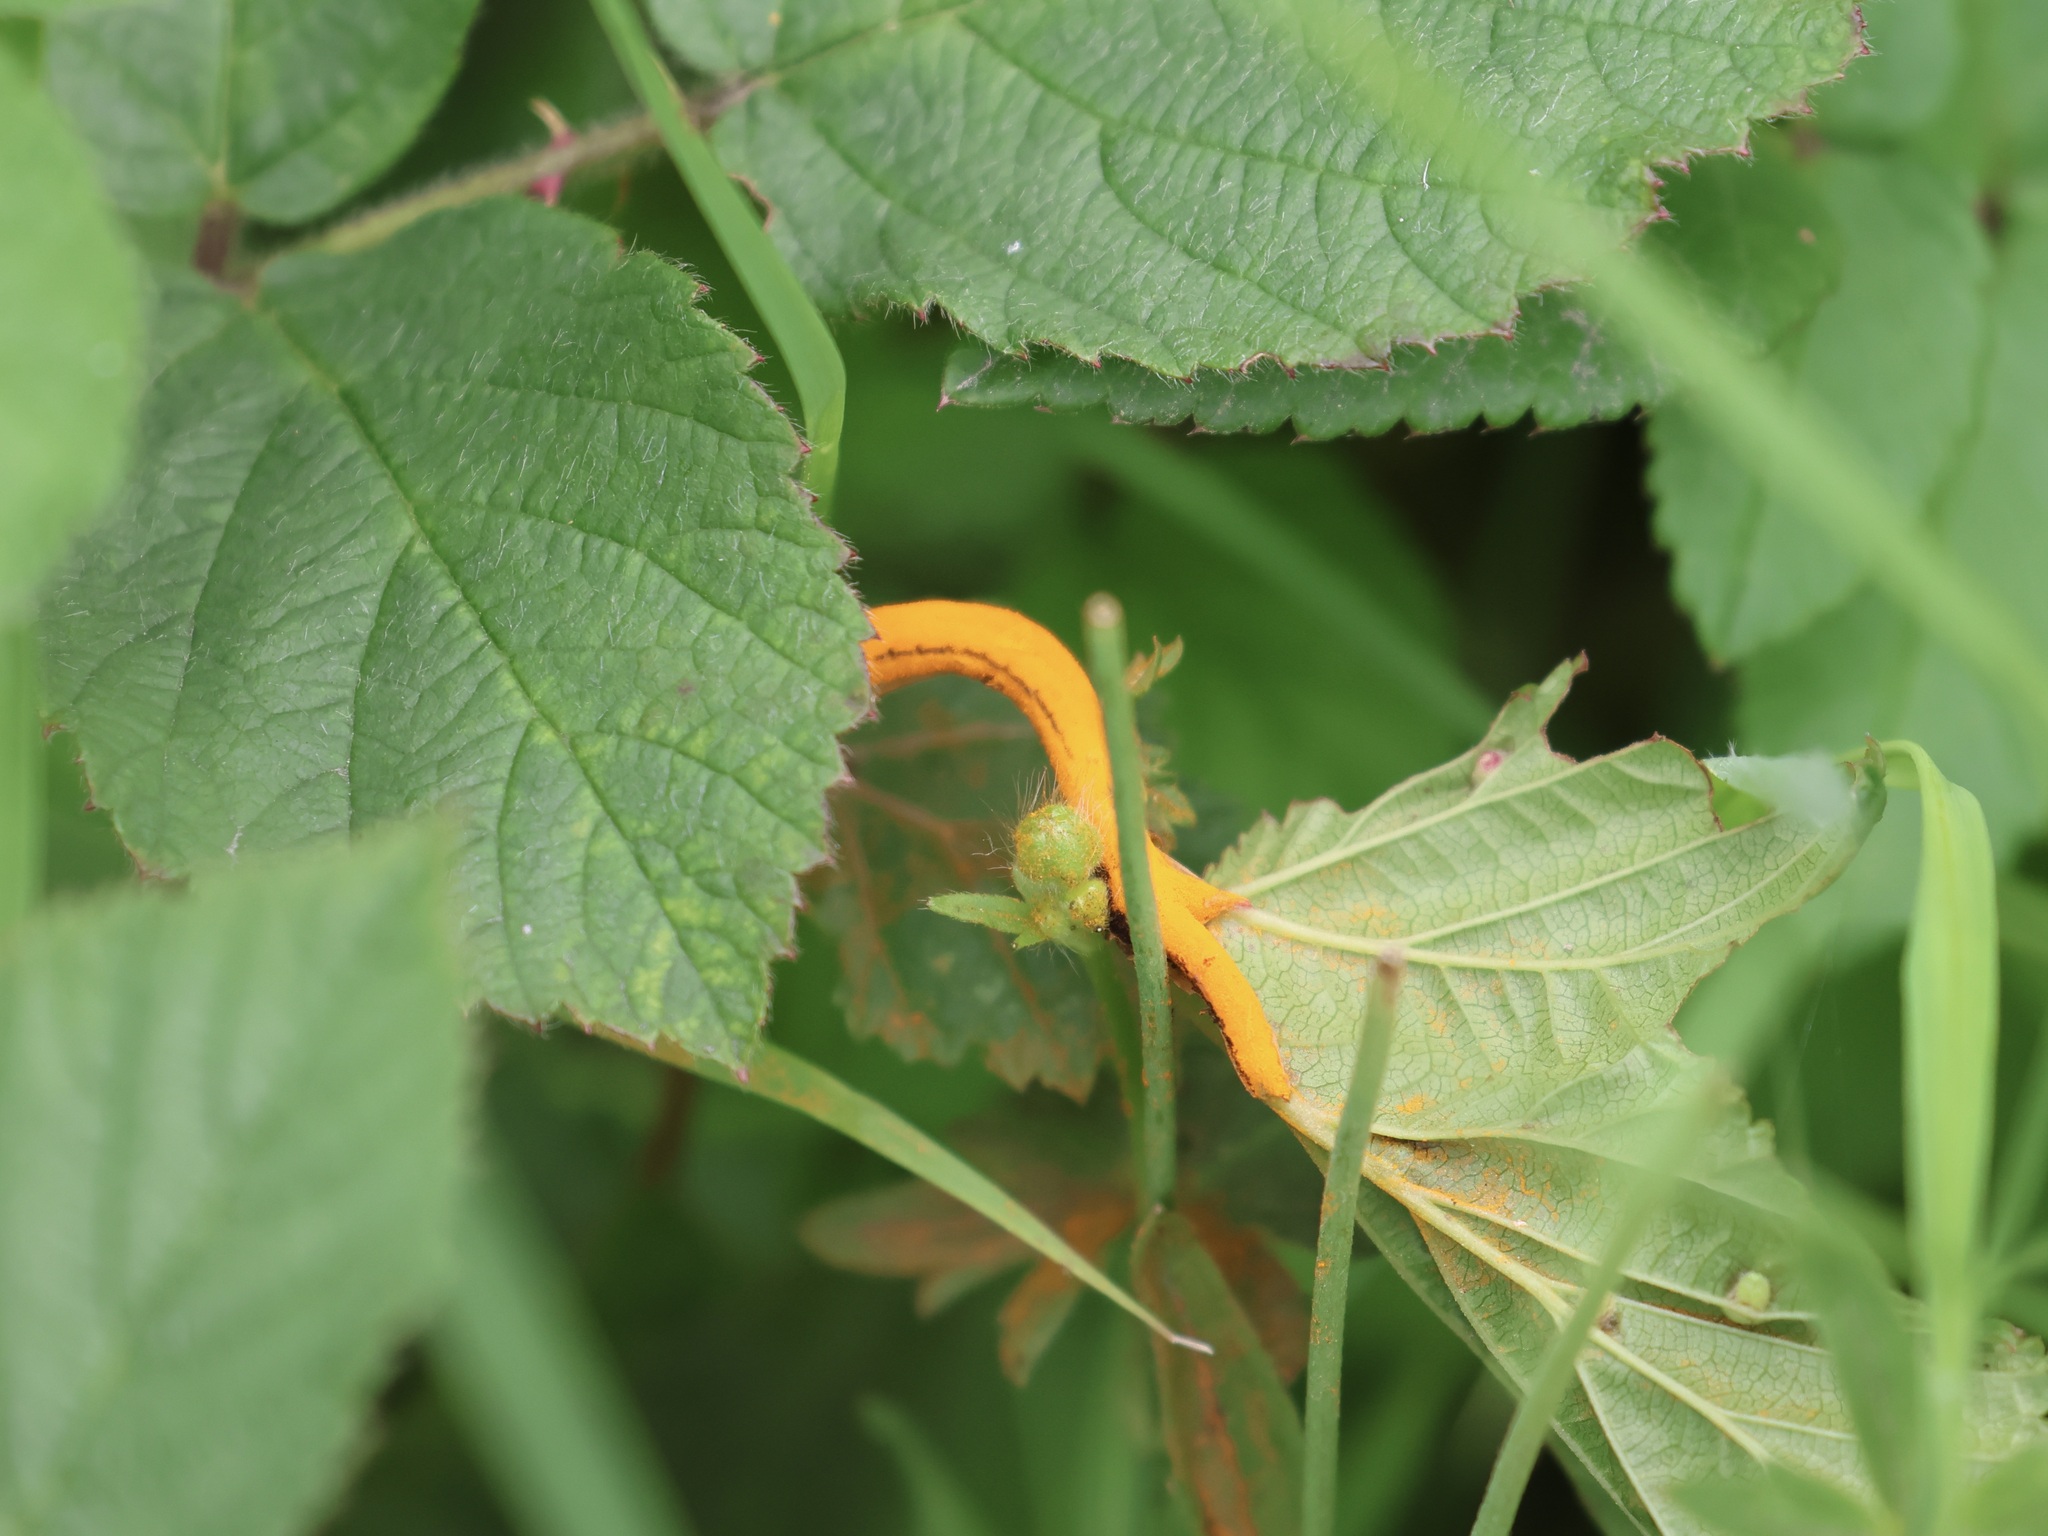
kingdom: Fungi
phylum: Basidiomycota
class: Pucciniomycetes
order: Pucciniales
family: Raveneliaceae
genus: Triphragmium
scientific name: Triphragmium ulmariae
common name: Meadowsweet rust
